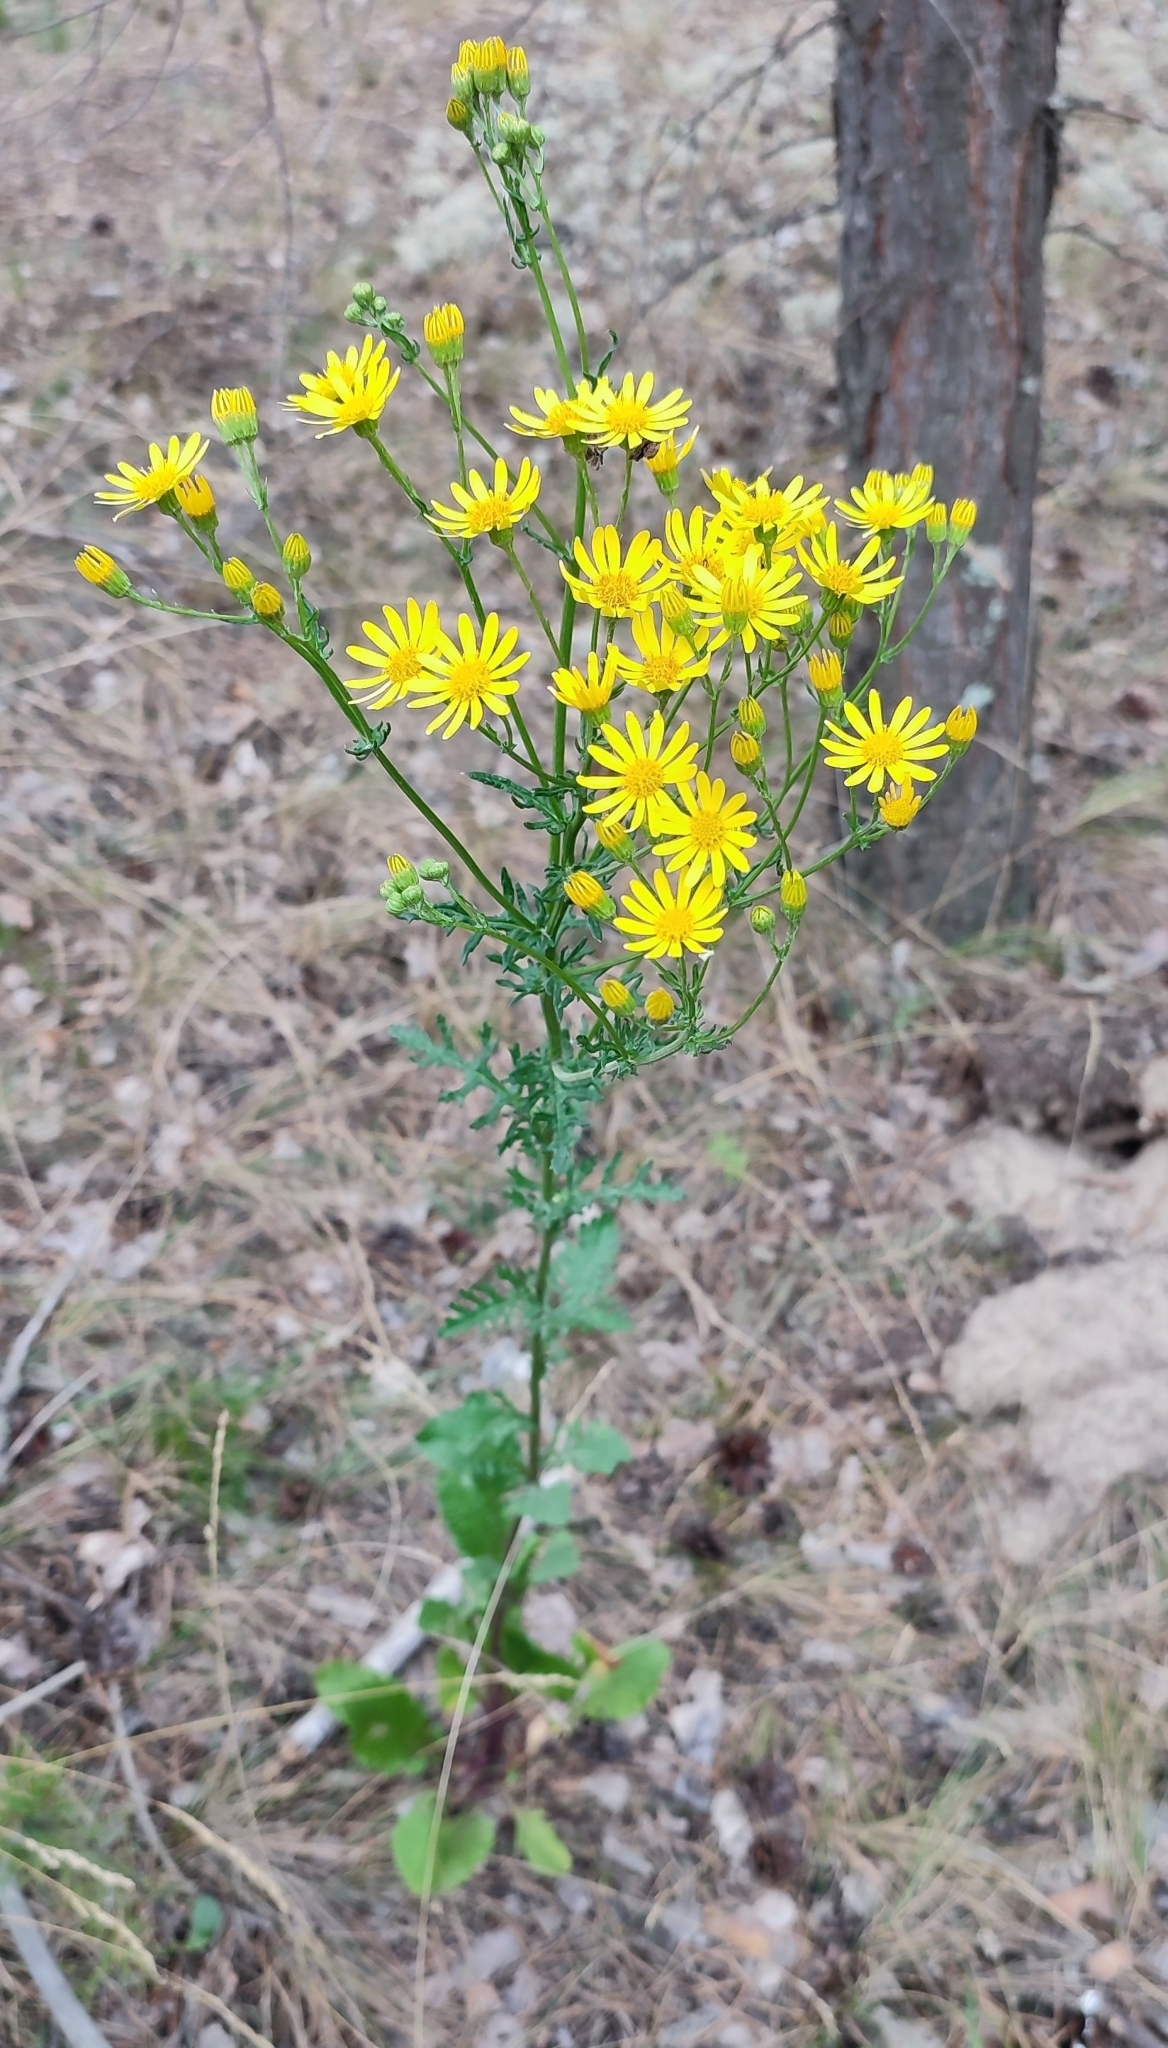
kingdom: Plantae
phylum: Tracheophyta
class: Magnoliopsida
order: Asterales
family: Asteraceae
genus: Jacobaea
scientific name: Jacobaea vulgaris
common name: Stinking willie
